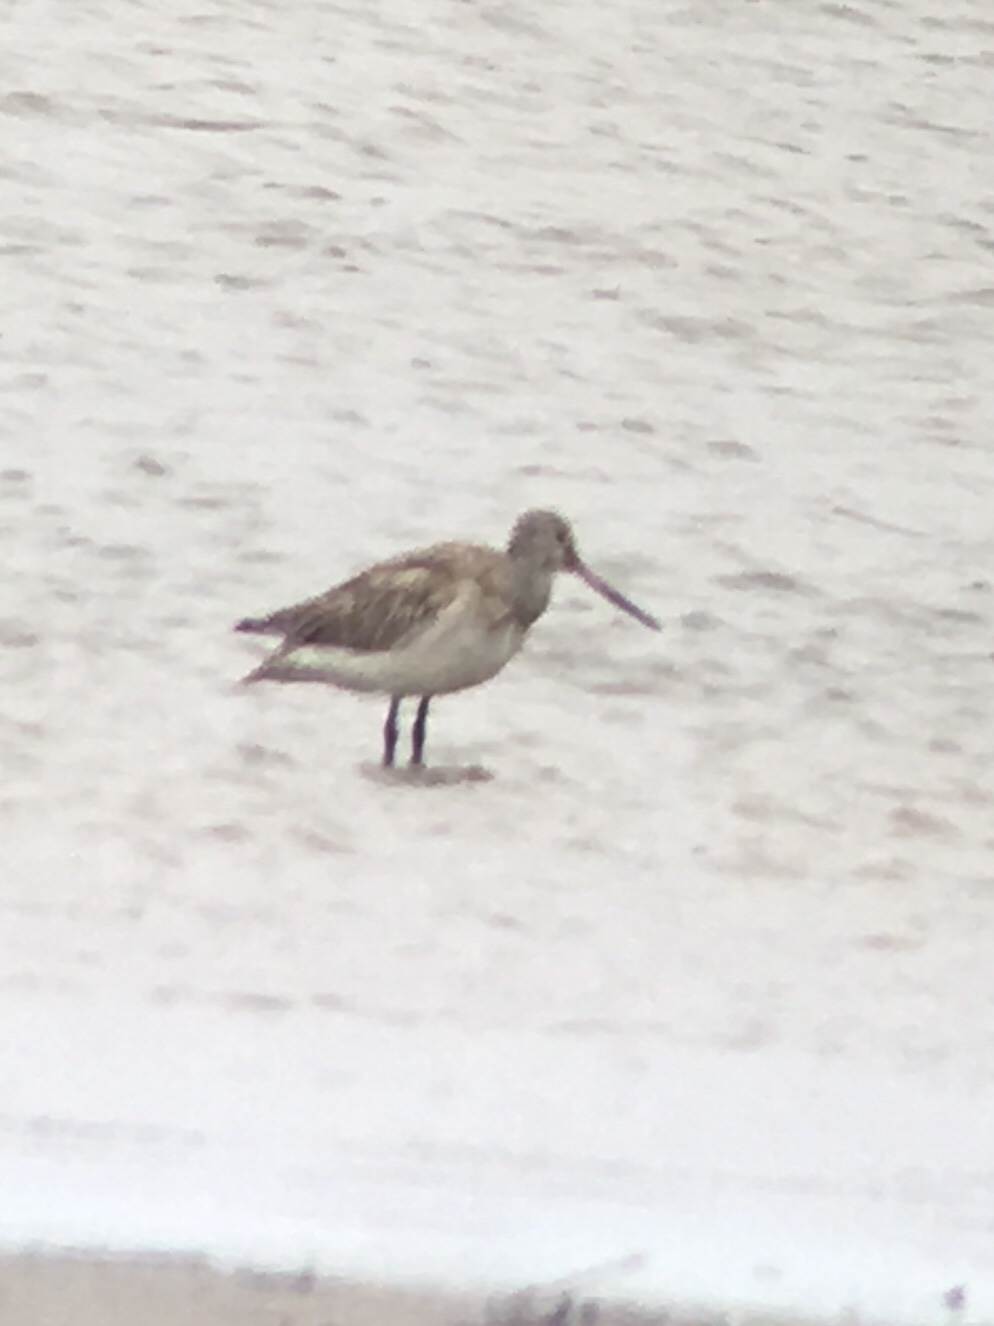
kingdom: Animalia
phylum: Chordata
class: Aves
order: Charadriiformes
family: Scolopacidae
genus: Limosa
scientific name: Limosa lapponica
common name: Bar-tailed godwit
